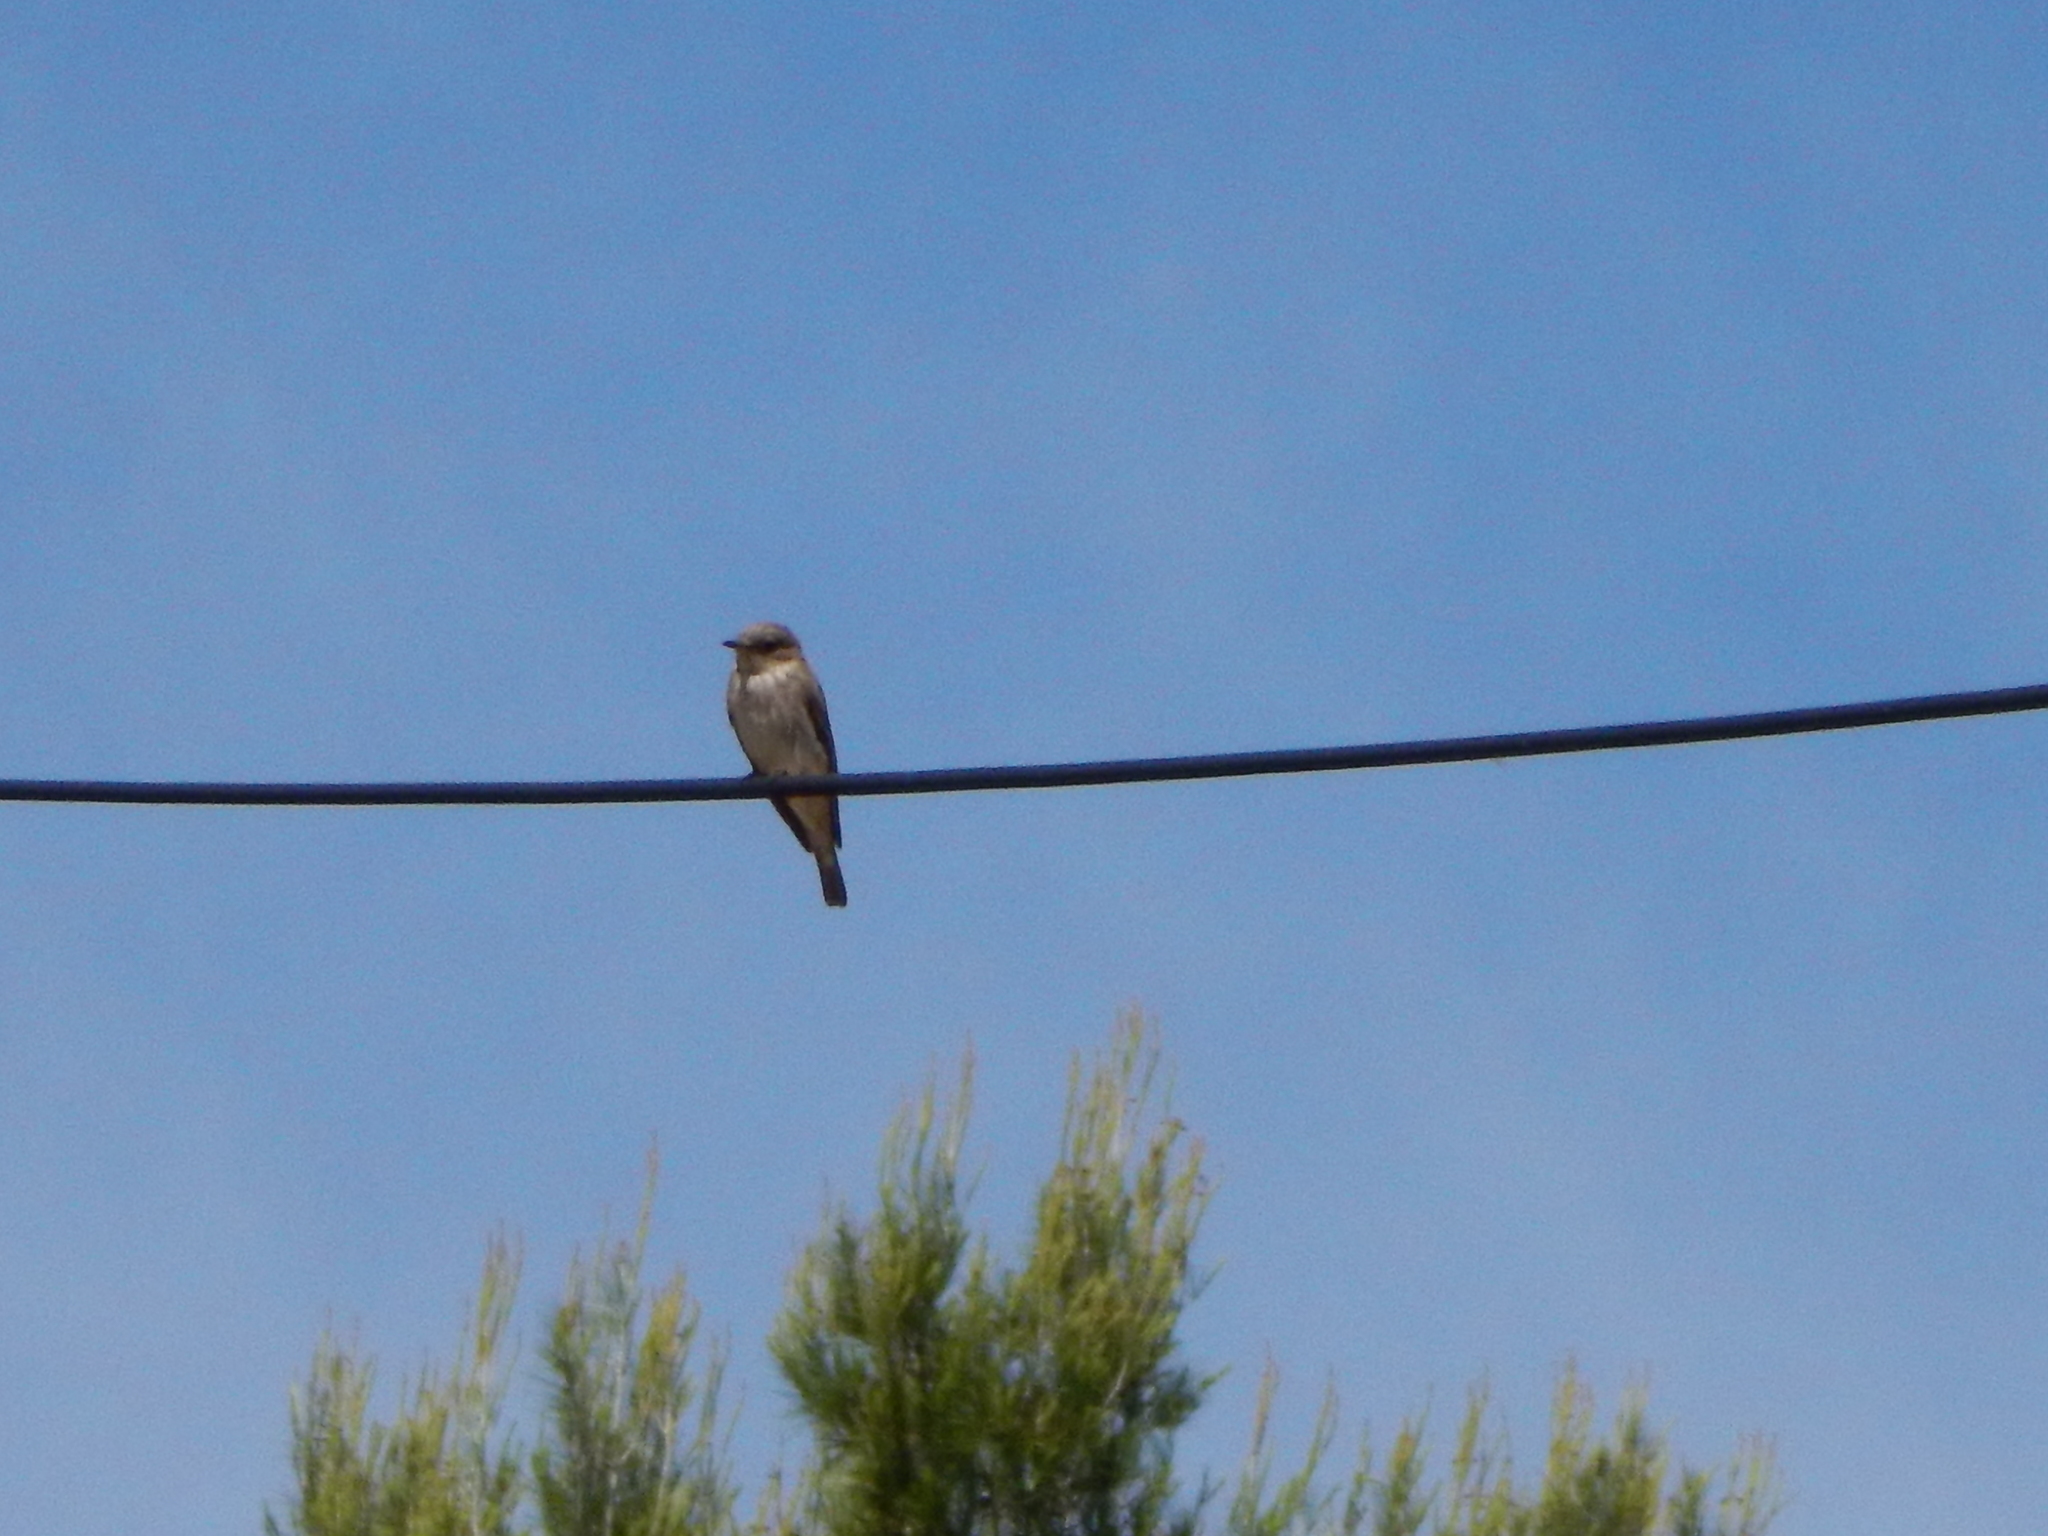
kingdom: Animalia
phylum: Chordata
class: Aves
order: Passeriformes
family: Muscicapidae
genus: Muscicapa
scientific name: Muscicapa striata
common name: Spotted flycatcher
